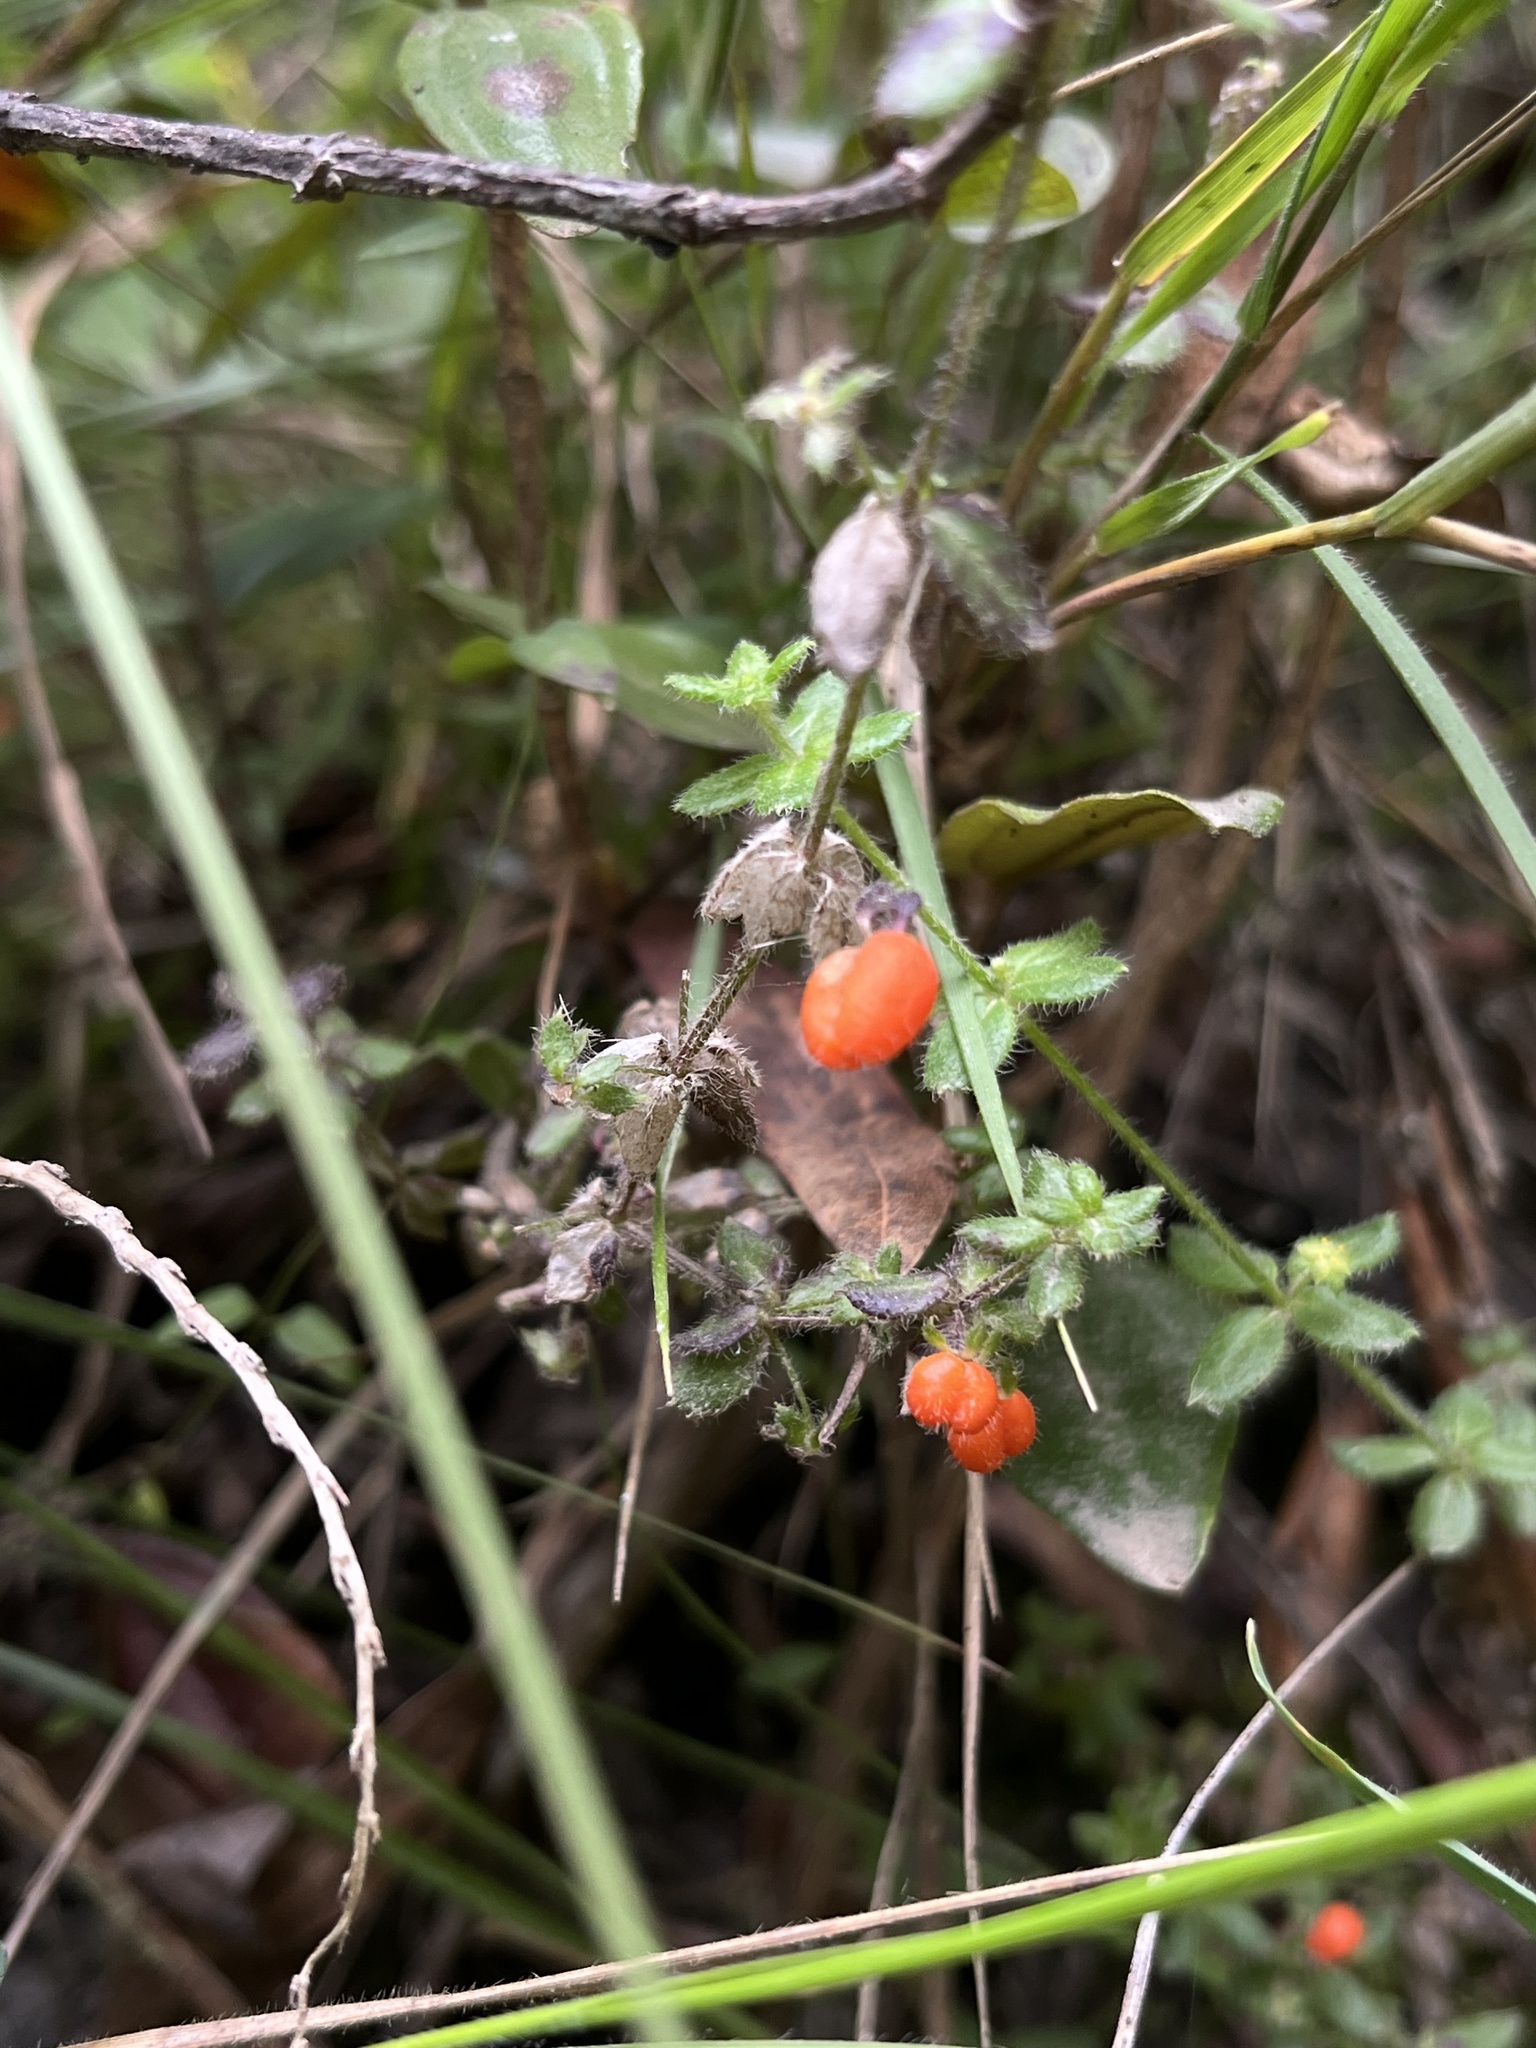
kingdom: Plantae
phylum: Tracheophyta
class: Magnoliopsida
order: Gentianales
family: Rubiaceae
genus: Galium
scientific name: Galium hypocarpium
